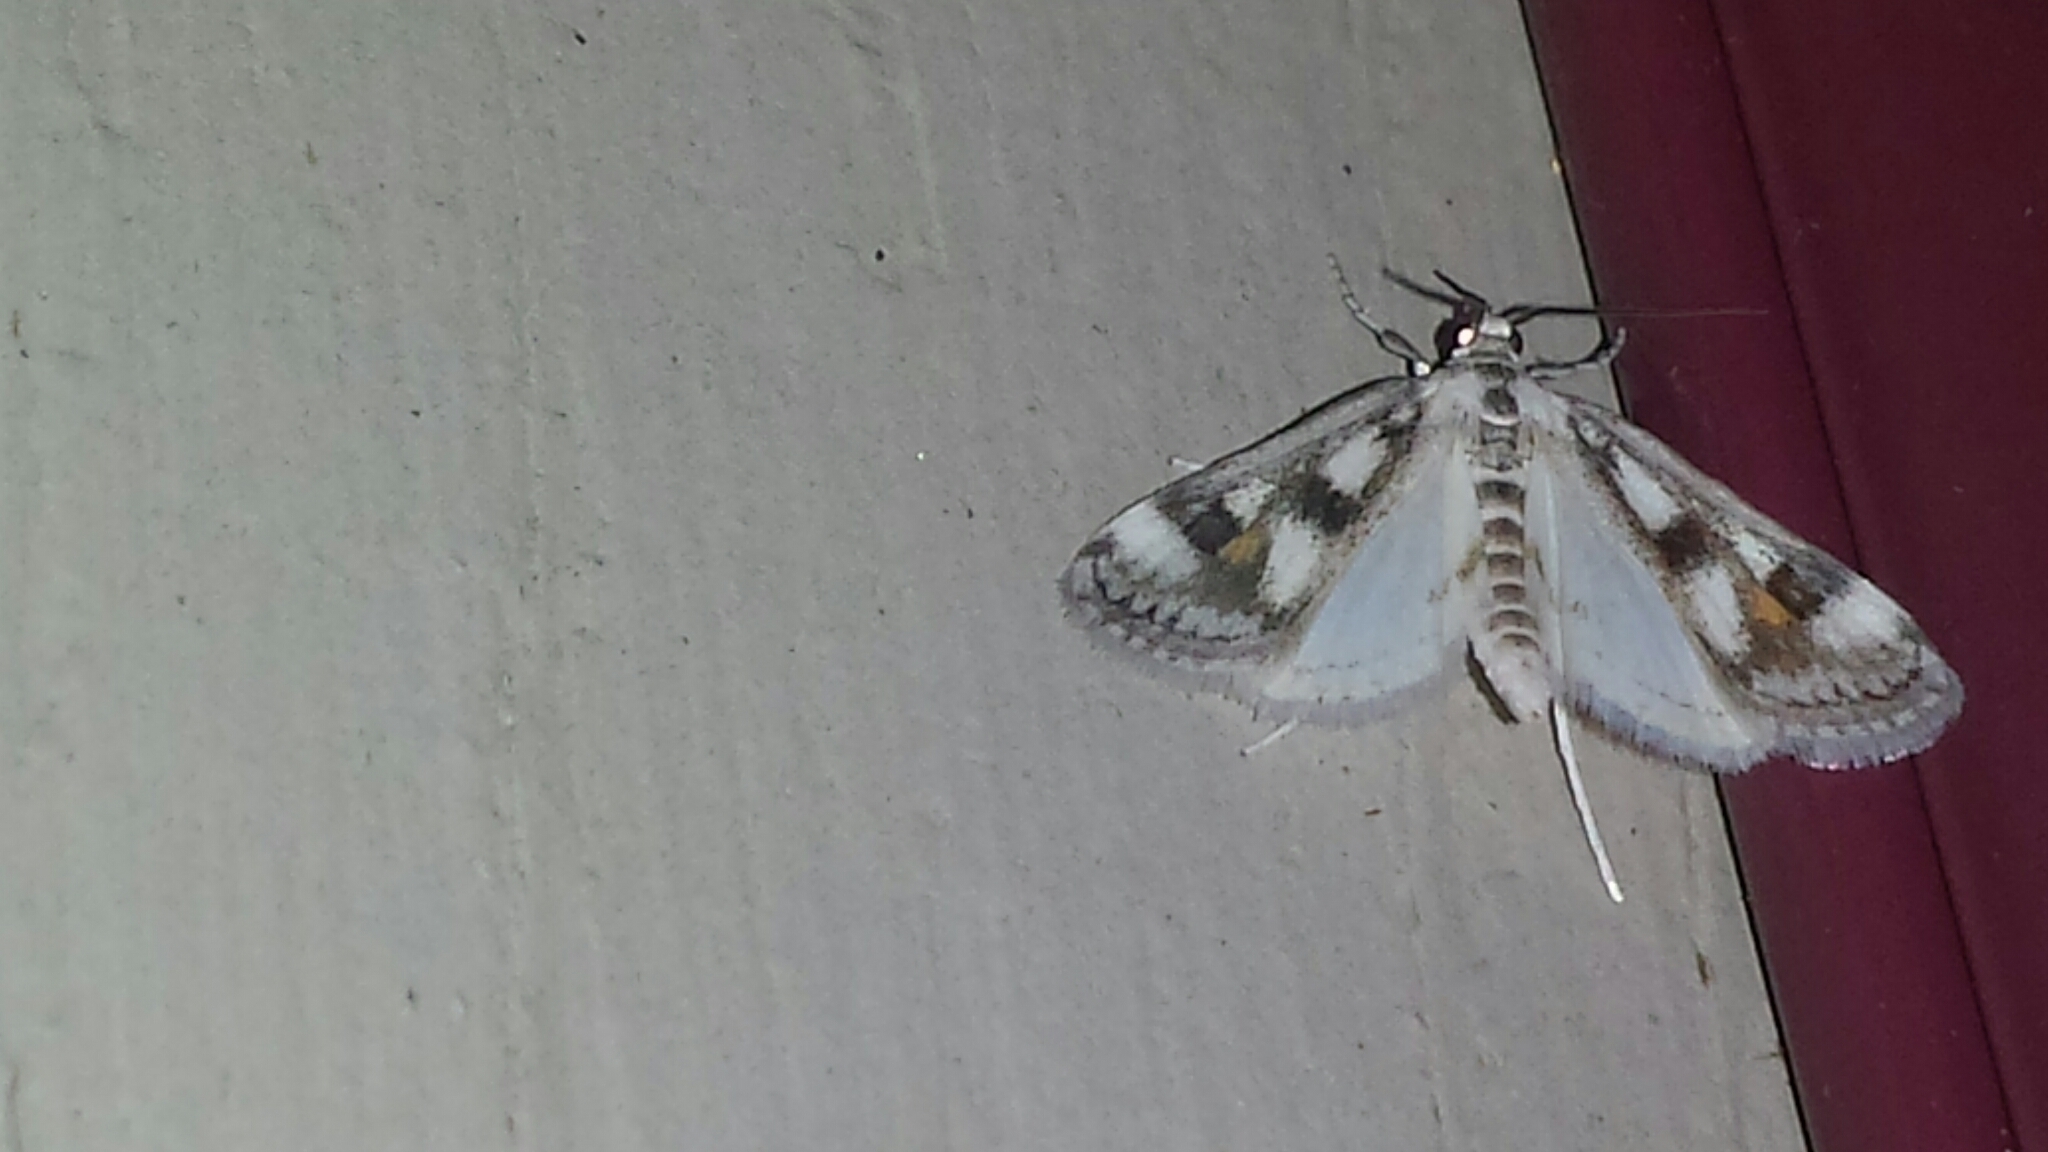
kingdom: Animalia
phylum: Arthropoda
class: Insecta
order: Lepidoptera
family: Crambidae
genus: Parapoynx
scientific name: Parapoynx maculalis
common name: Polymorphic pondweed moth
